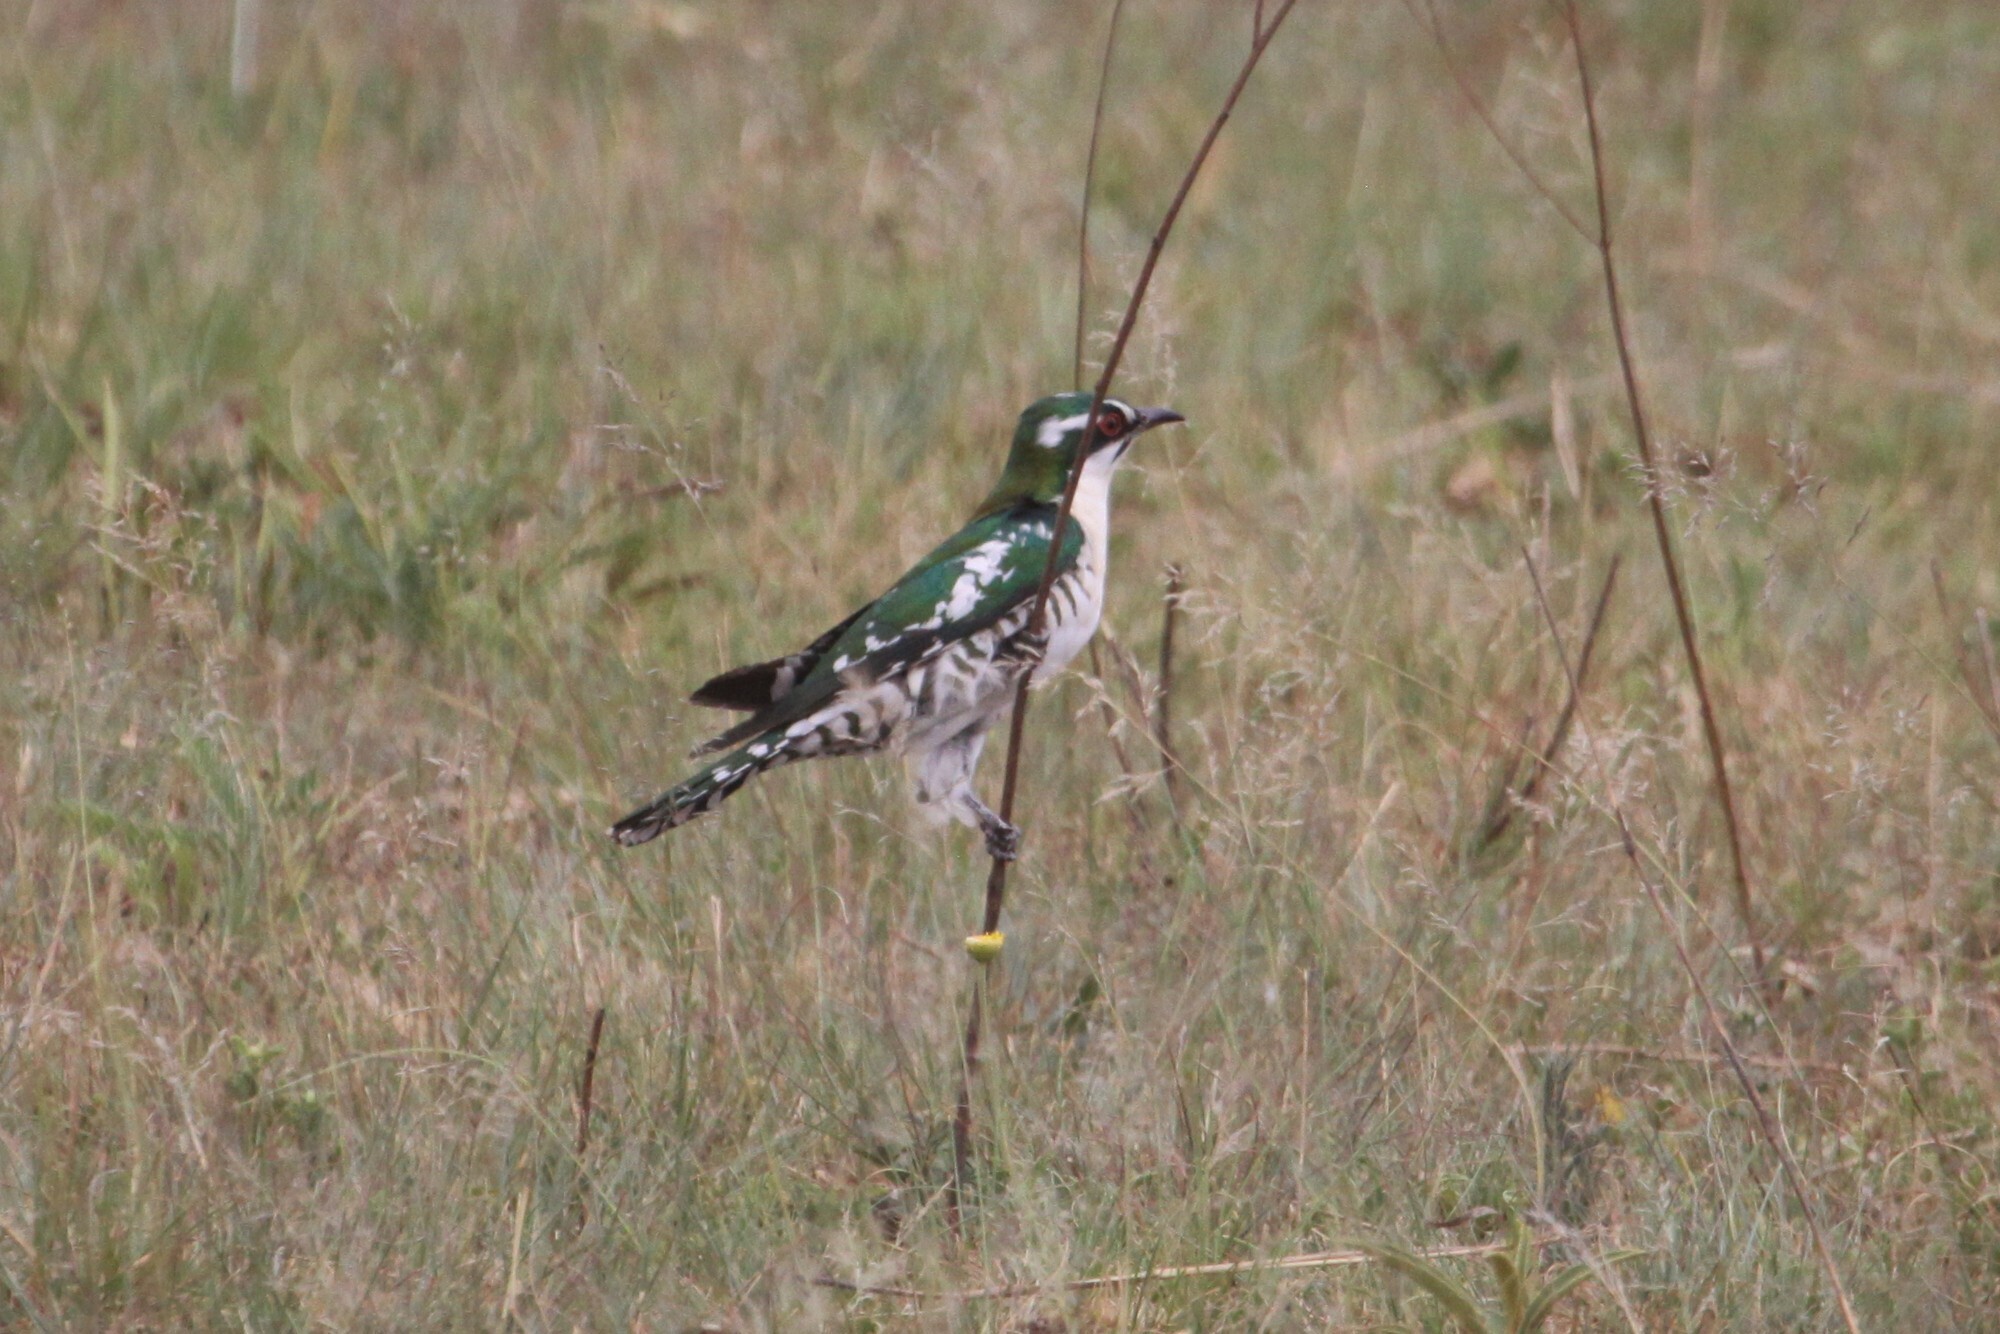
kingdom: Animalia
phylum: Chordata
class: Aves
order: Cuculiformes
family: Cuculidae
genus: Chrysococcyx
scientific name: Chrysococcyx caprius
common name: Diederik cuckoo
